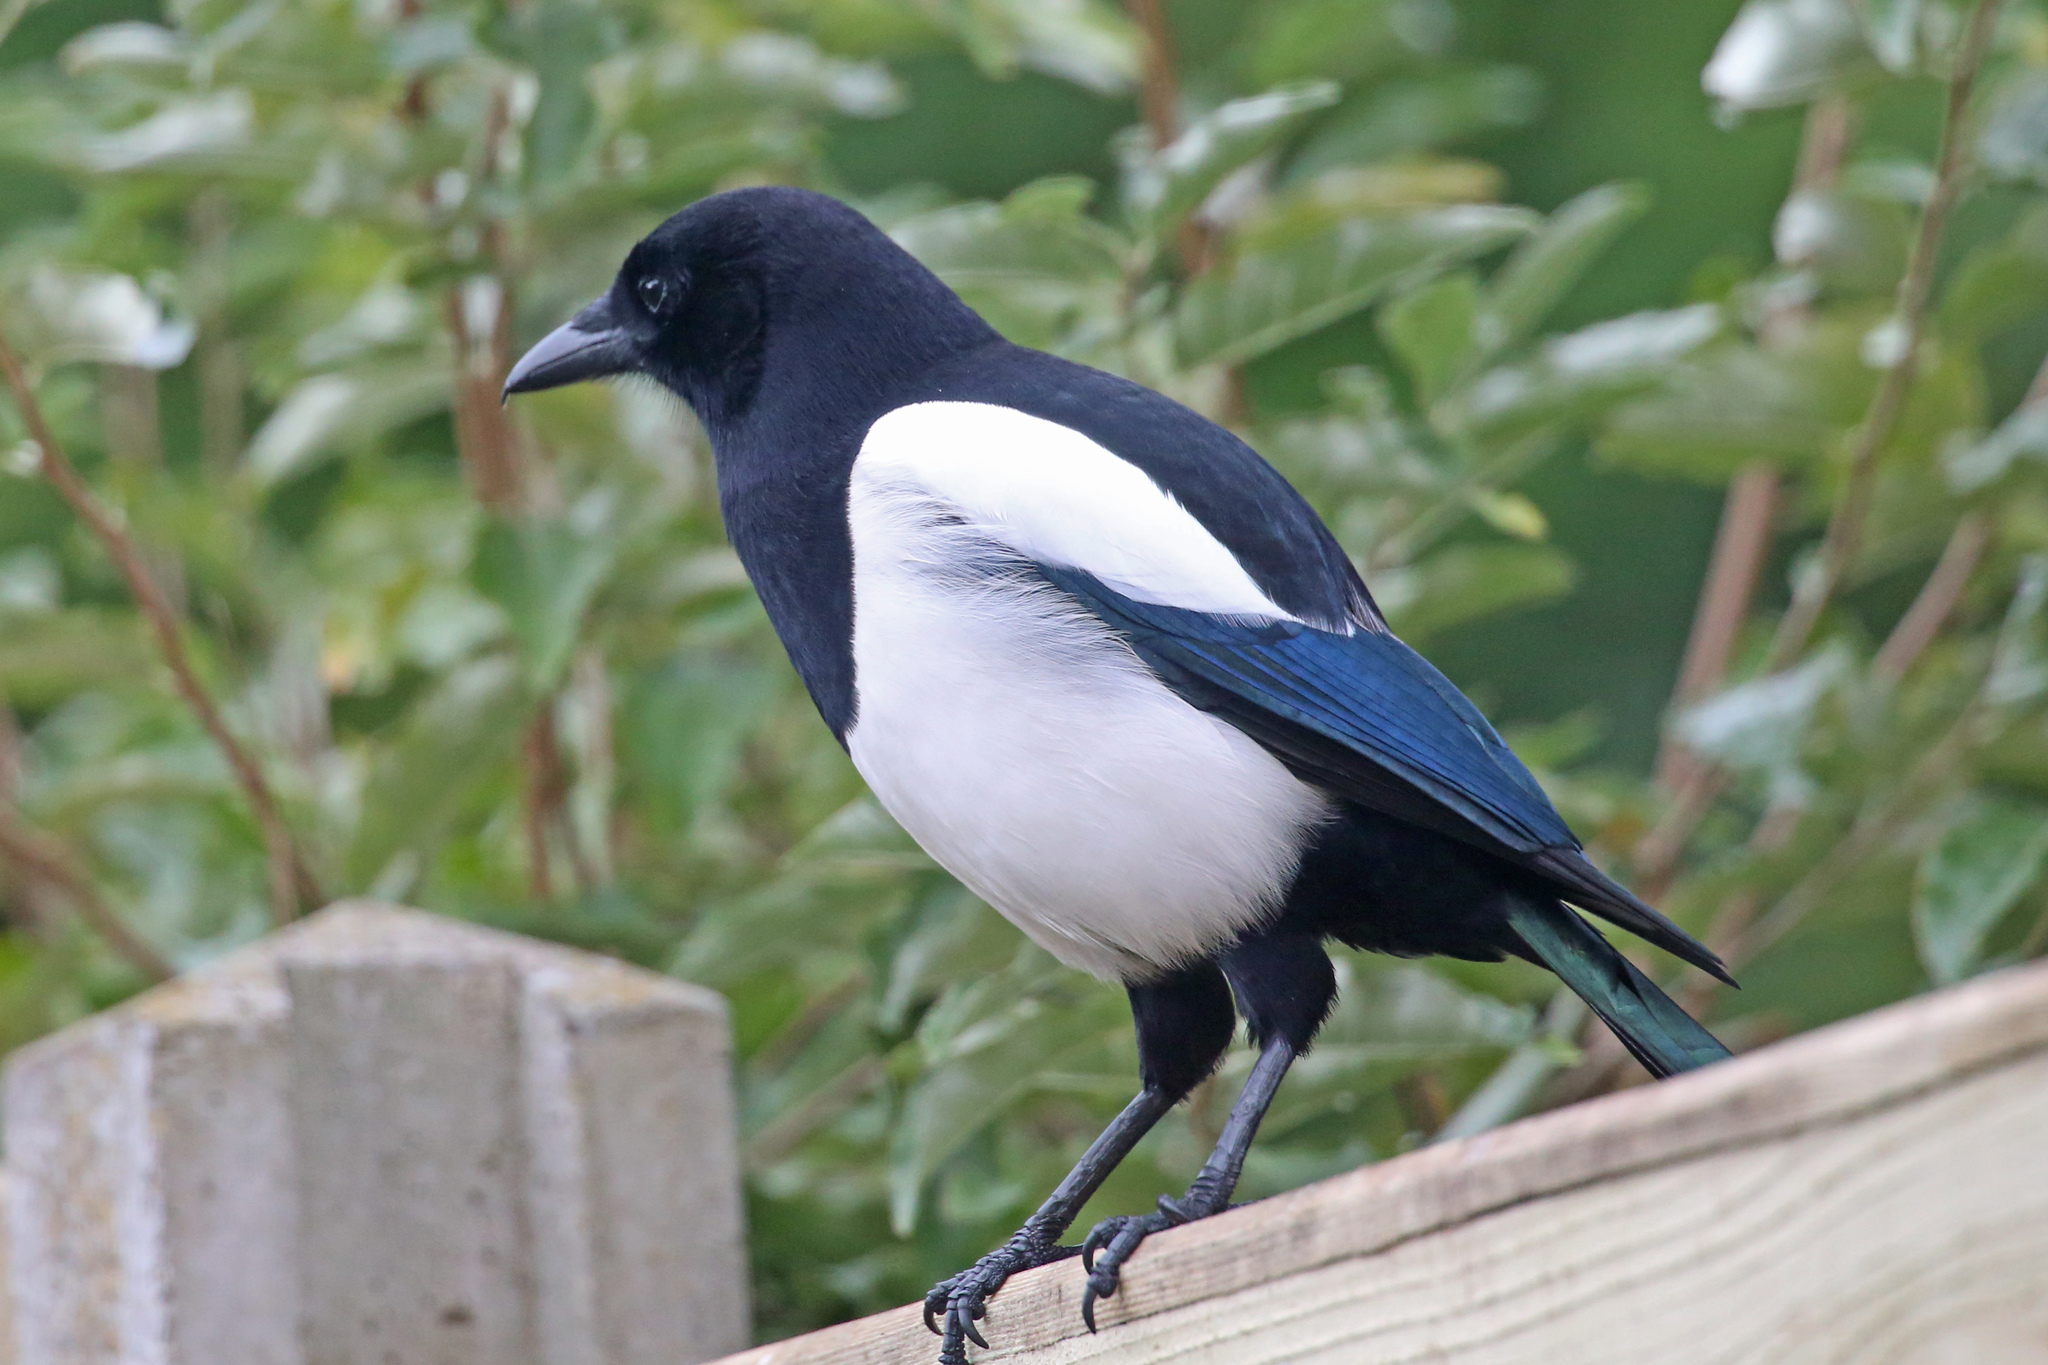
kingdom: Animalia
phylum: Chordata
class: Aves
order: Passeriformes
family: Corvidae
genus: Pica
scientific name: Pica pica
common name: Eurasian magpie
